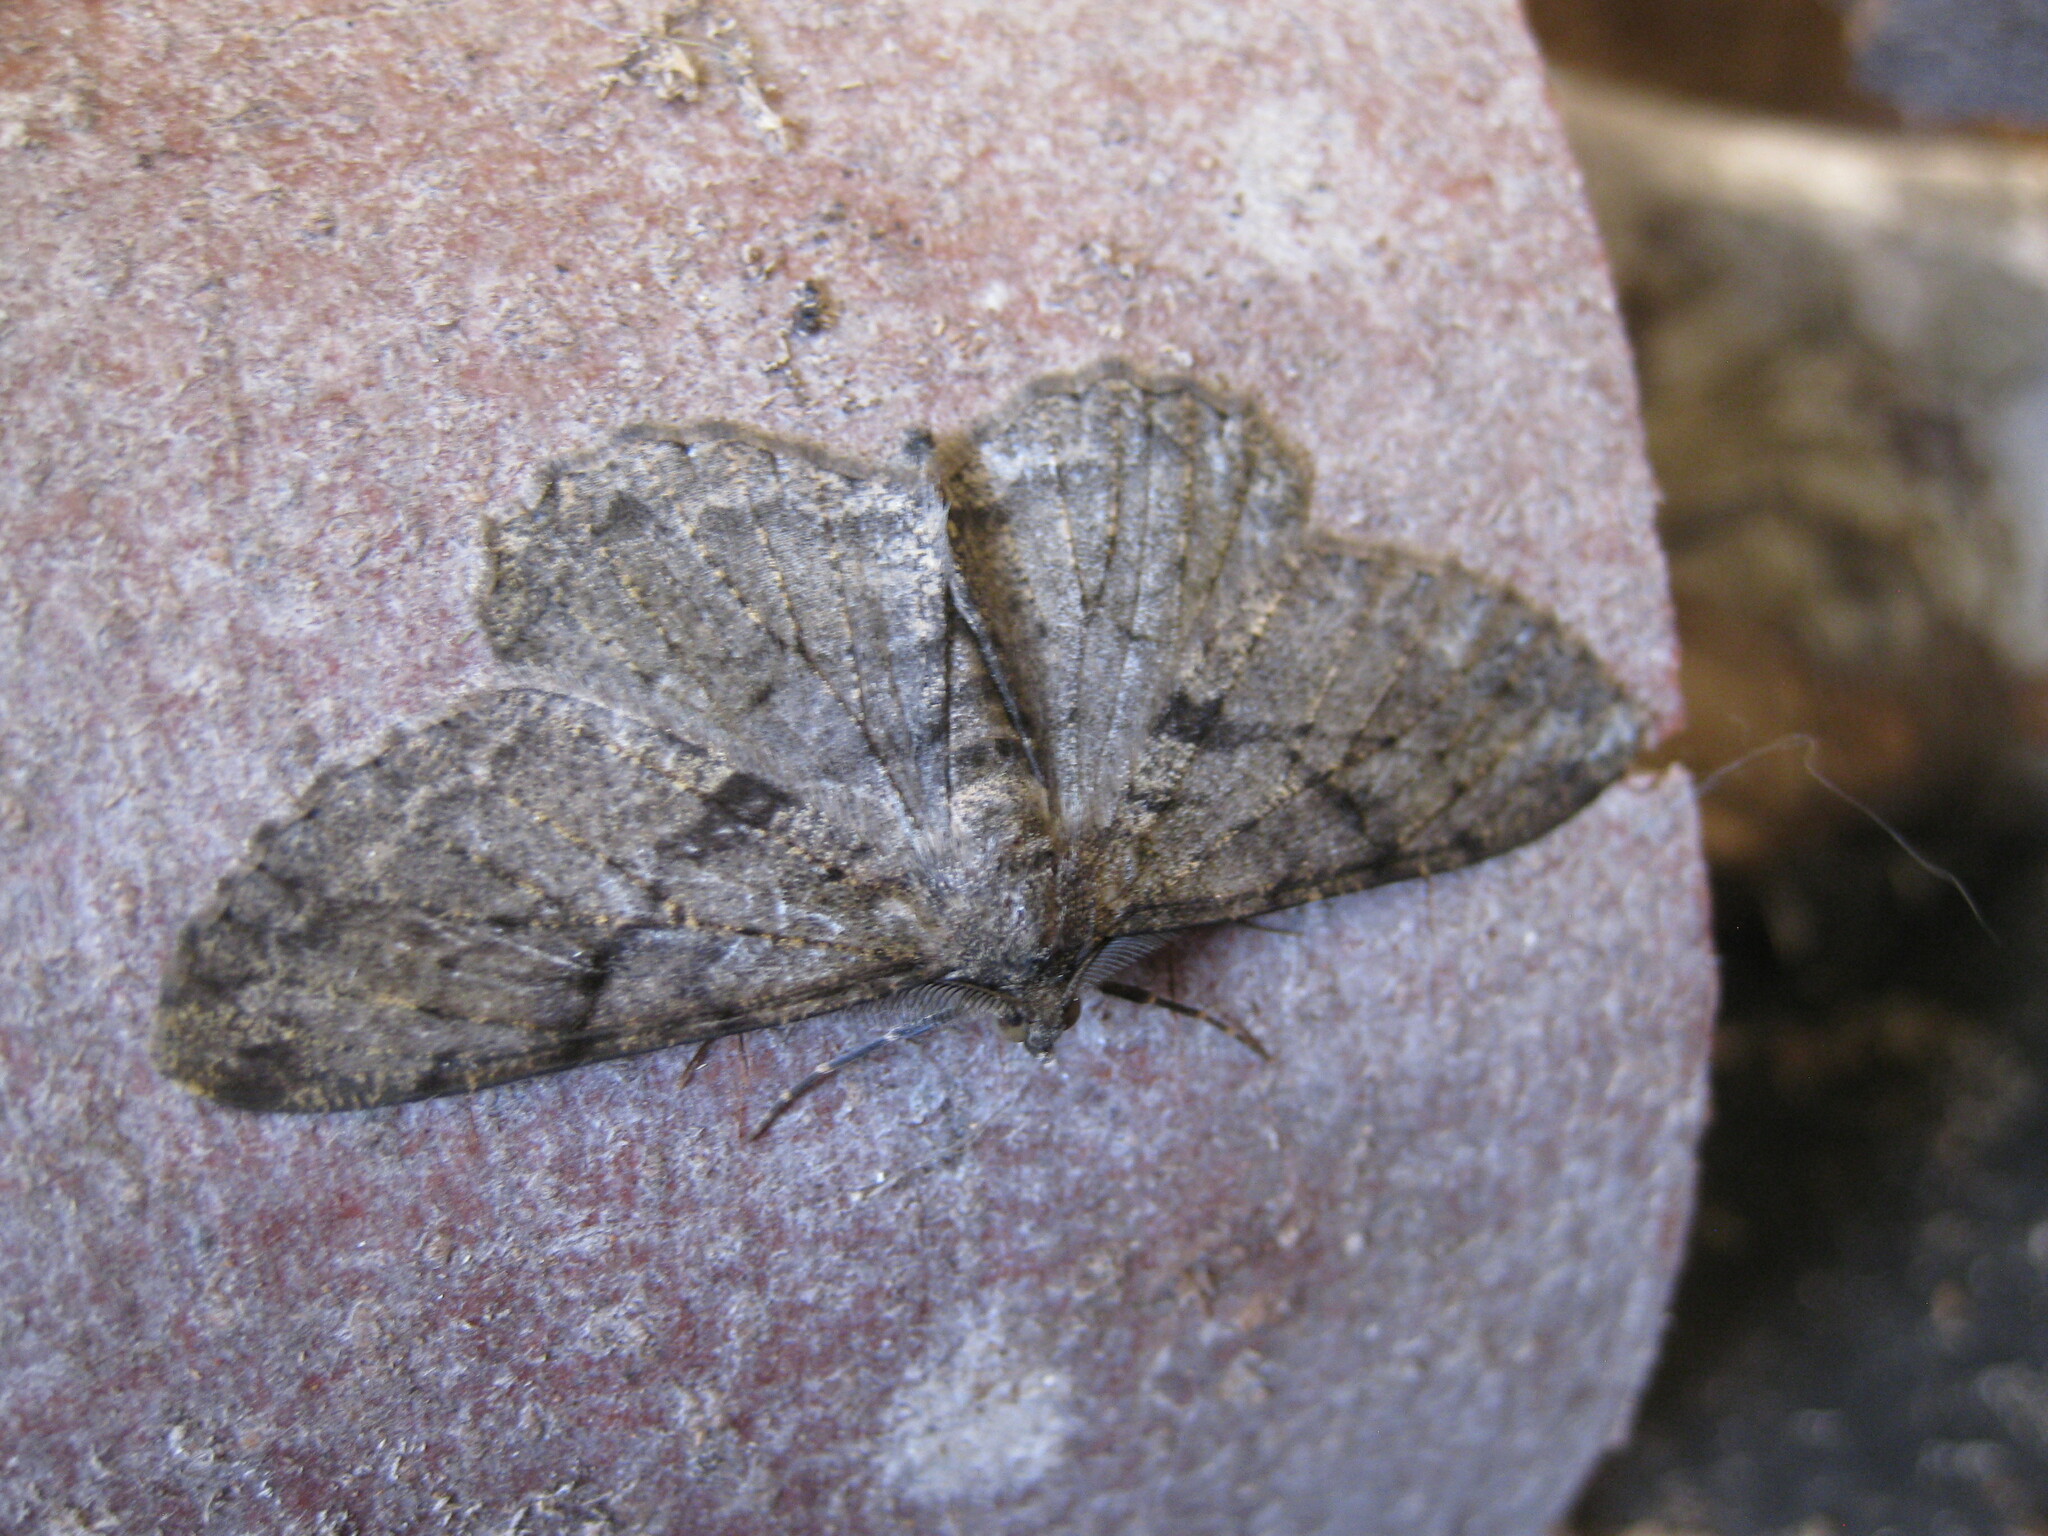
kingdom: Animalia
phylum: Arthropoda
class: Insecta
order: Lepidoptera
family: Geometridae
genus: Peribatodes
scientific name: Peribatodes rhomboidaria
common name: Willow beauty
